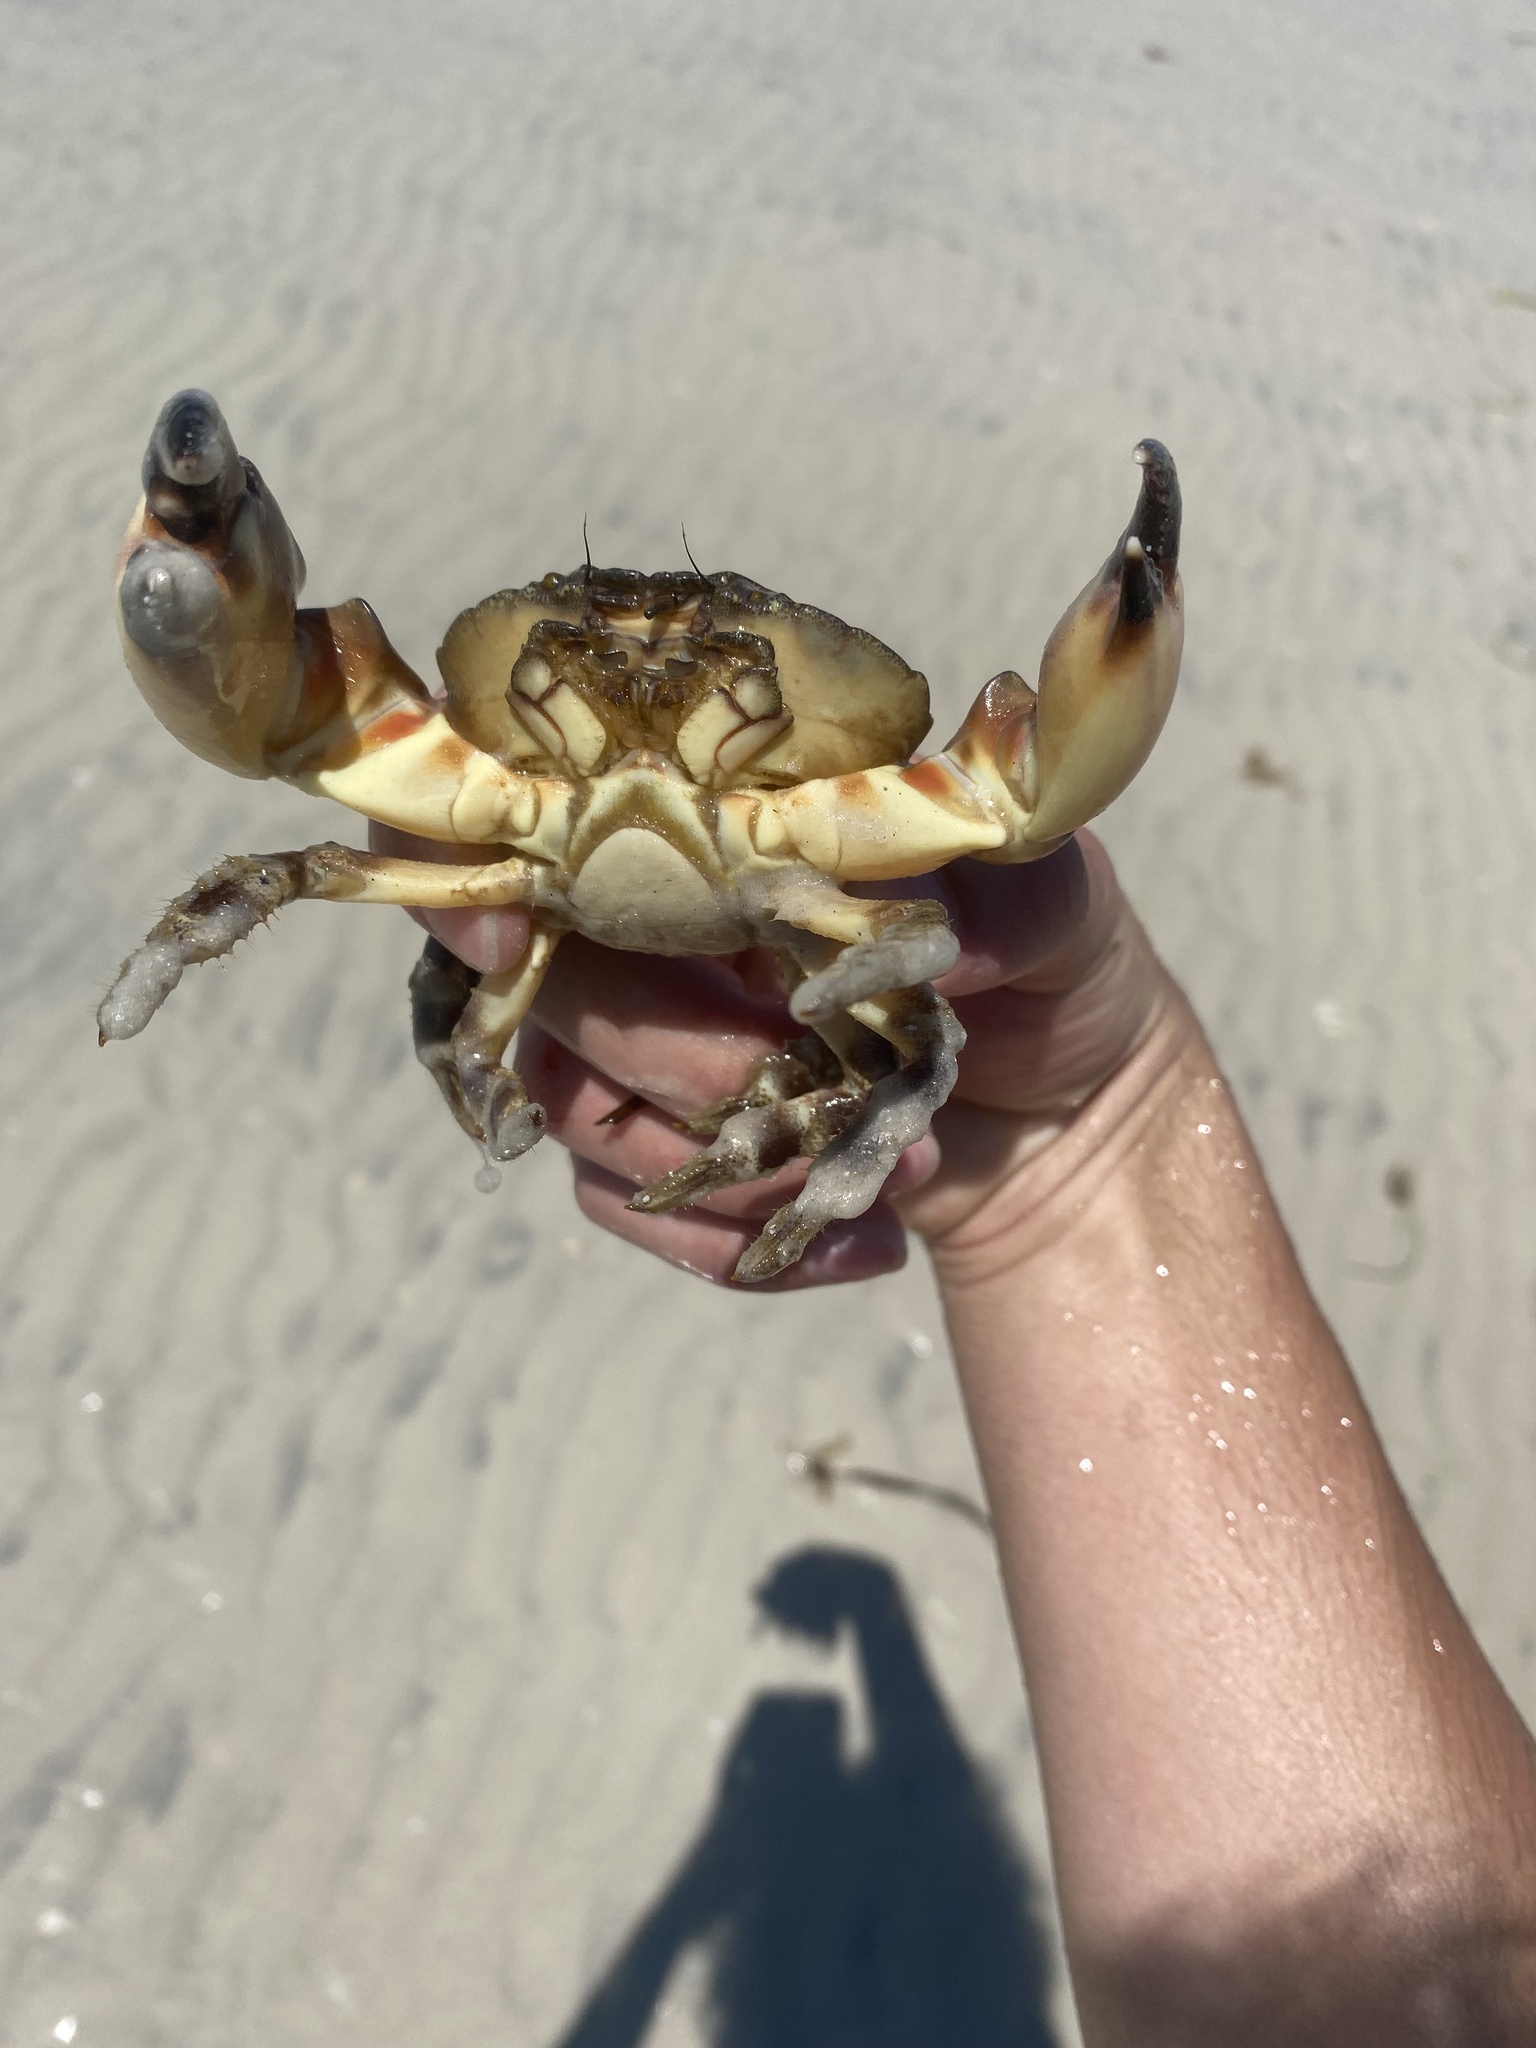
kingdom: Animalia
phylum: Arthropoda
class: Malacostraca
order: Decapoda
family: Menippidae
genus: Menippe
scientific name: Menippe mercenaria
